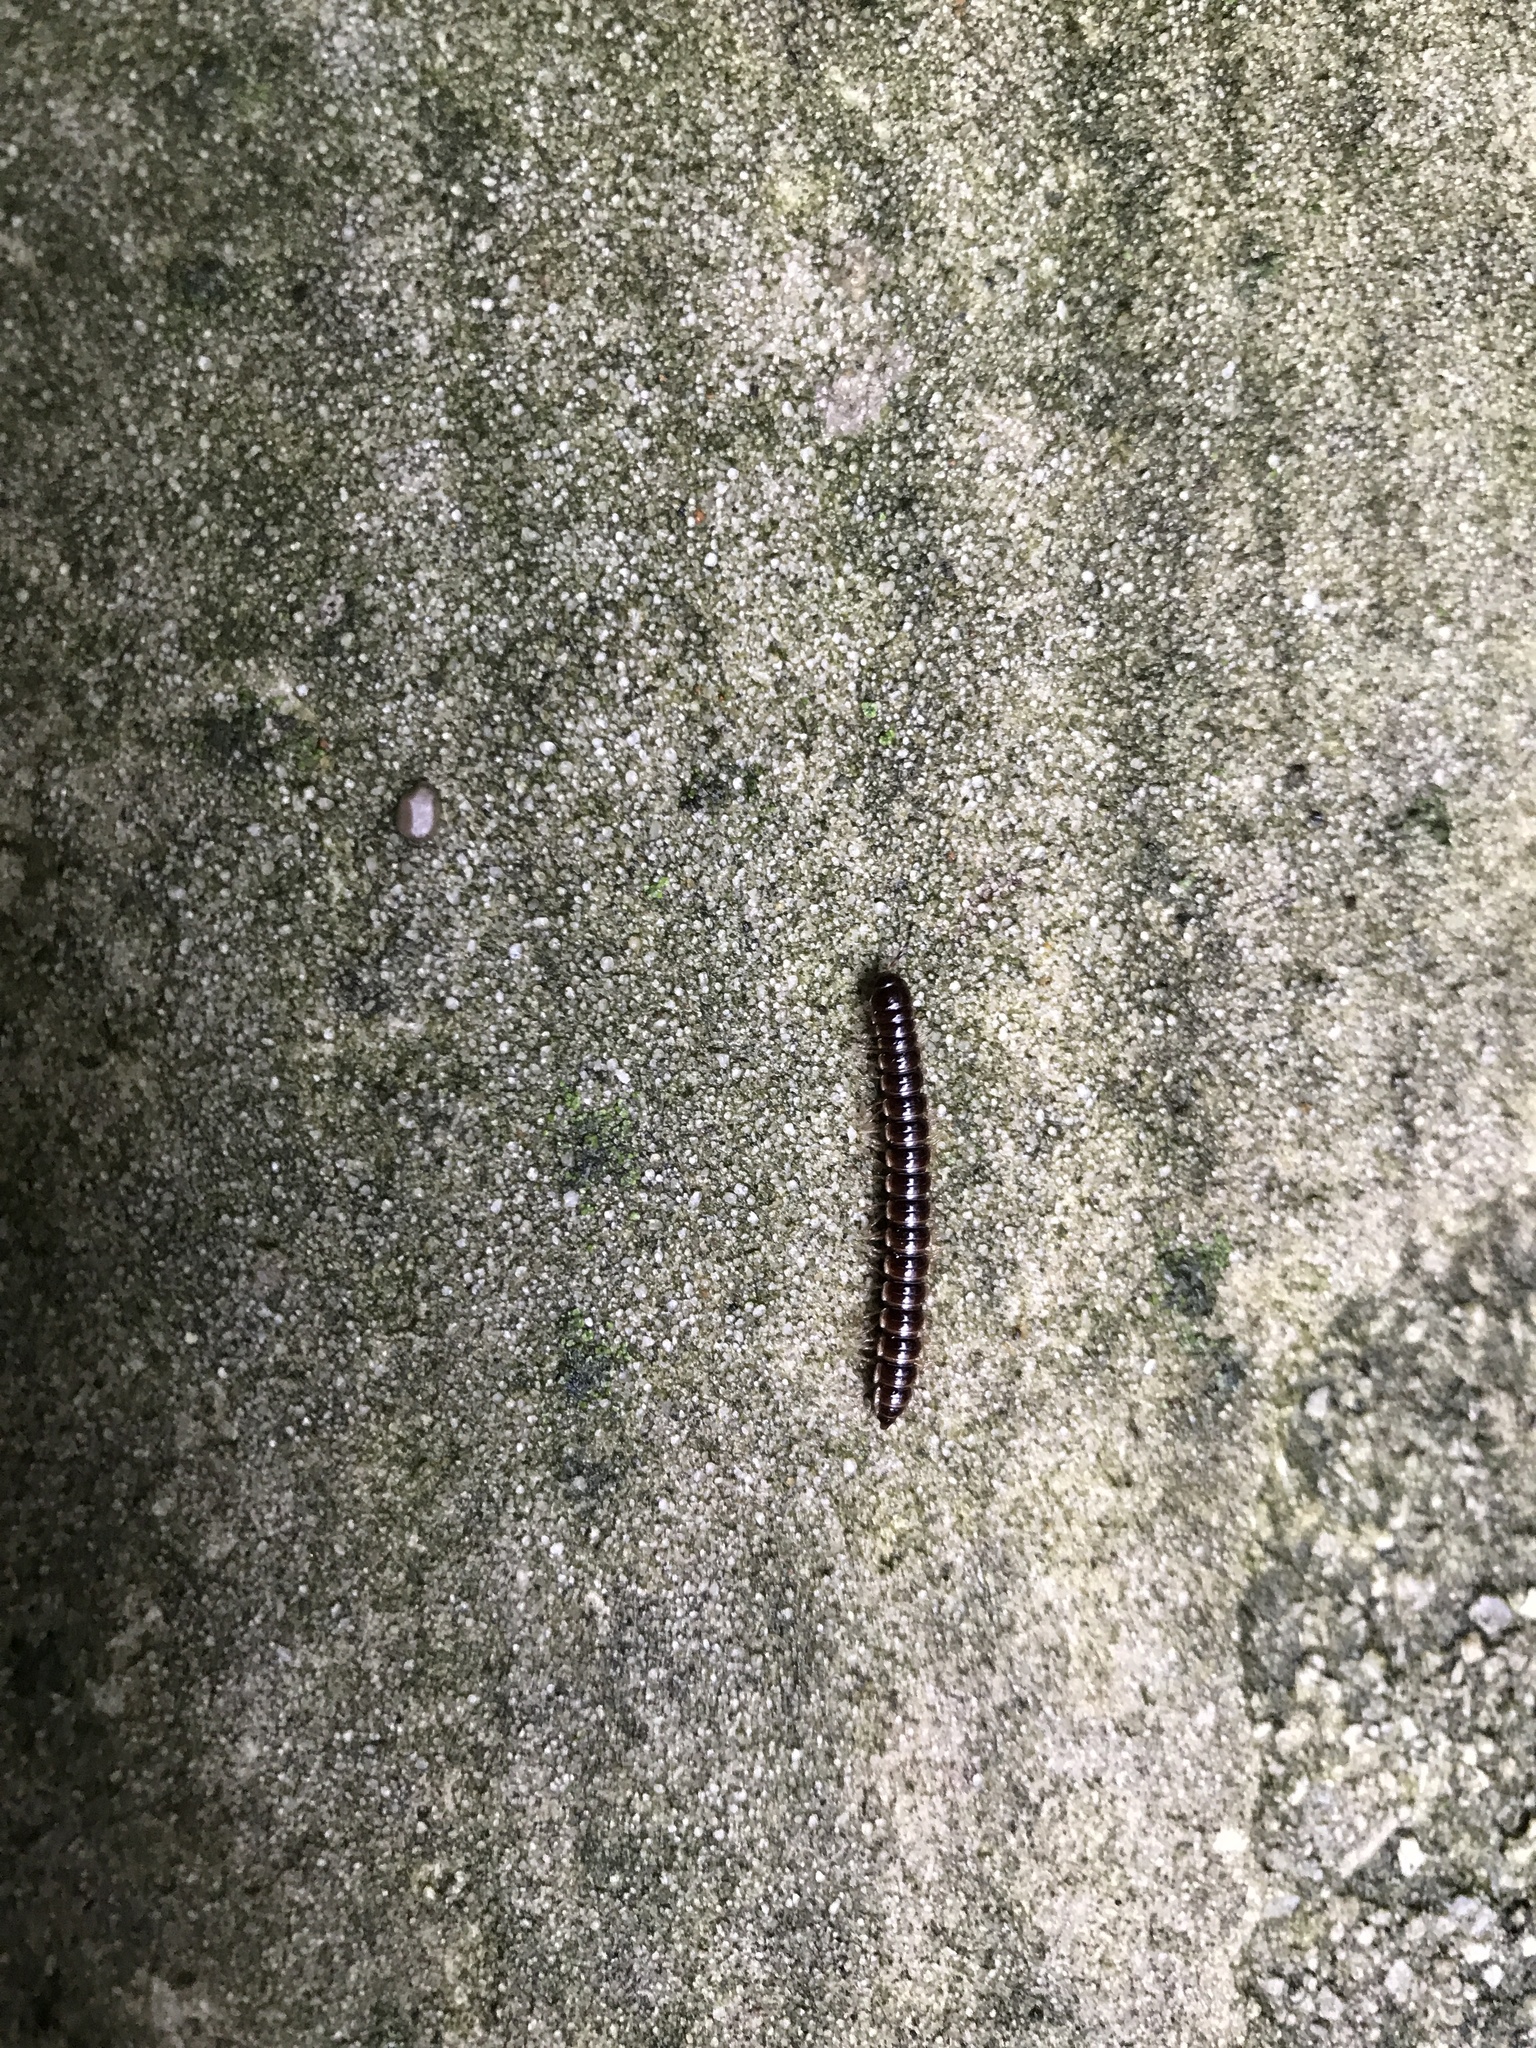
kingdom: Animalia
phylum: Arthropoda
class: Diplopoda
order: Polydesmida
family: Paradoxosomatidae
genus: Oxidus
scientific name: Oxidus gracilis
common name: Greenhouse millipede
